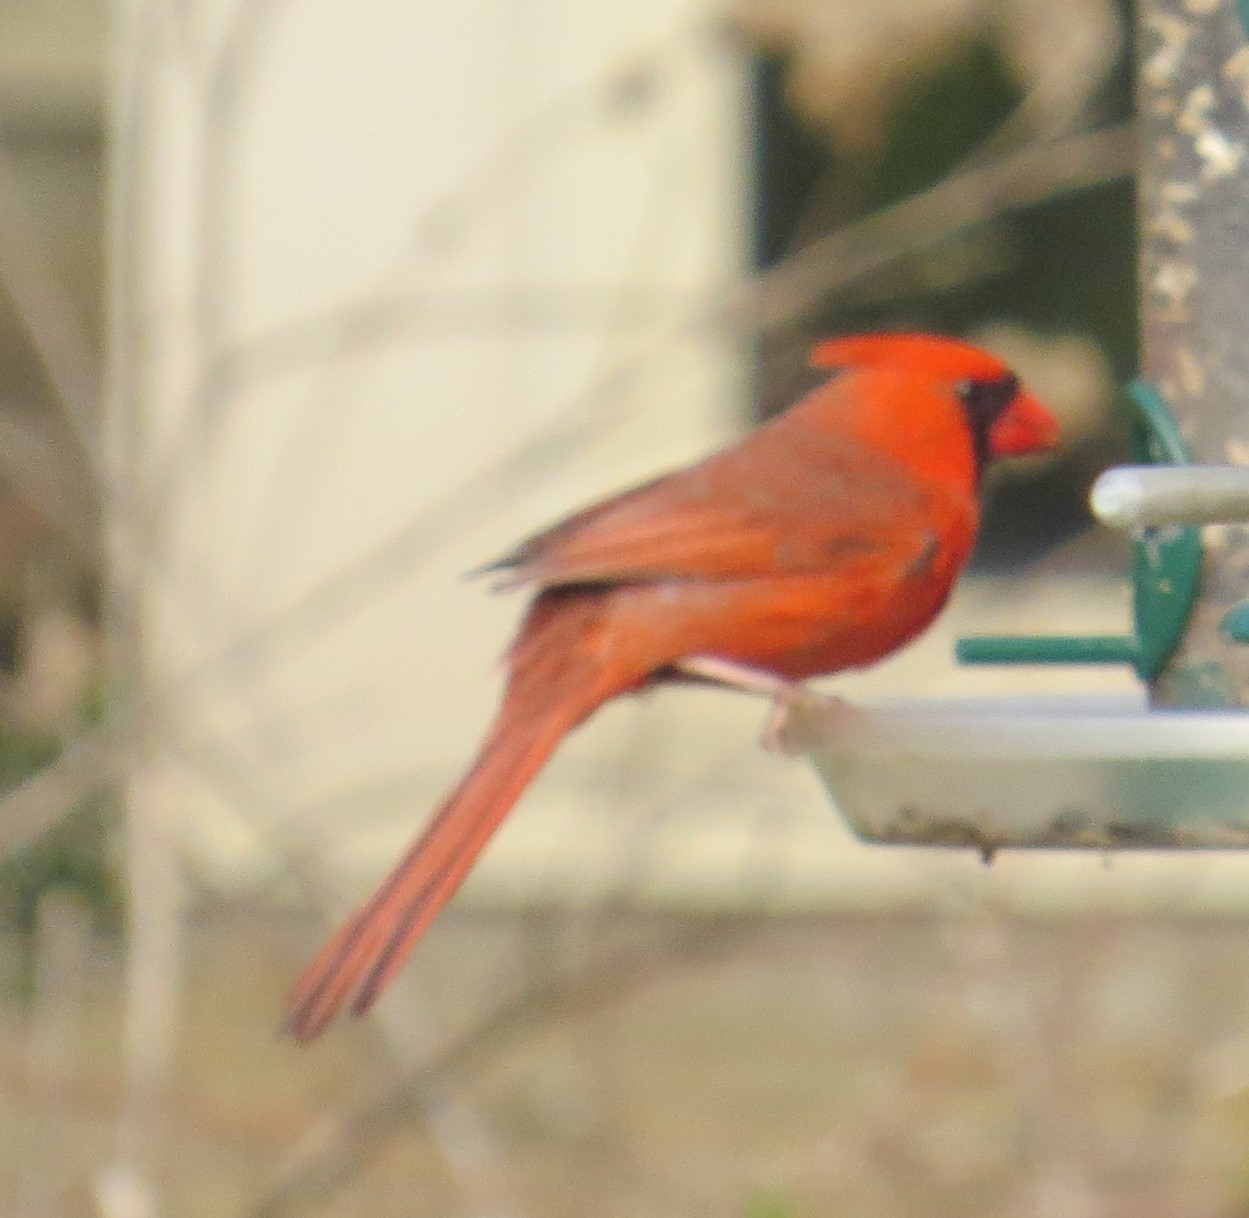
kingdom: Animalia
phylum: Chordata
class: Aves
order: Passeriformes
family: Cardinalidae
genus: Cardinalis
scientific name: Cardinalis cardinalis
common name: Northern cardinal
